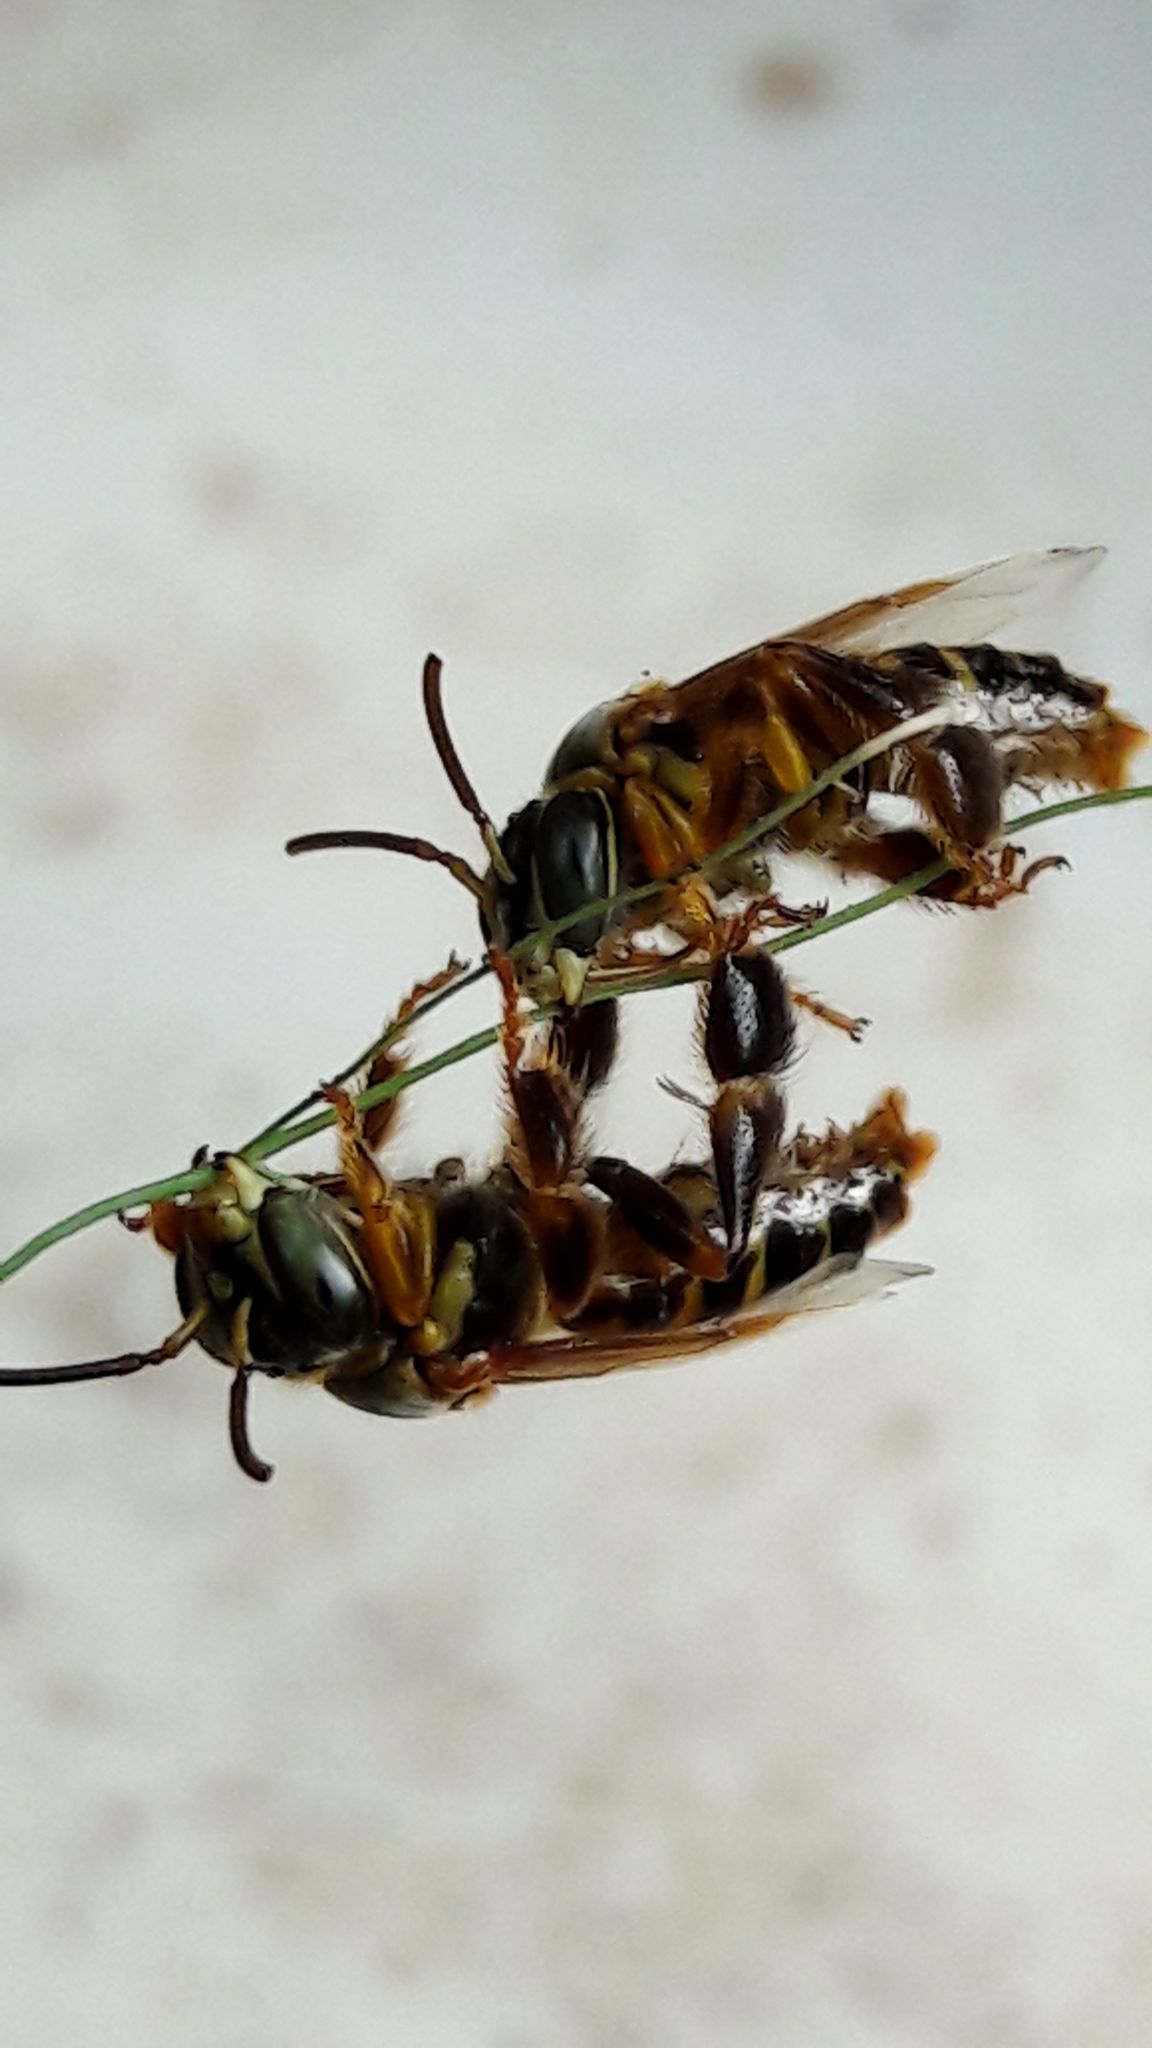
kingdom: Animalia
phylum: Arthropoda
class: Insecta
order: Hymenoptera
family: Apidae
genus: Paratetrapedia
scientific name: Paratetrapedia flaveola
